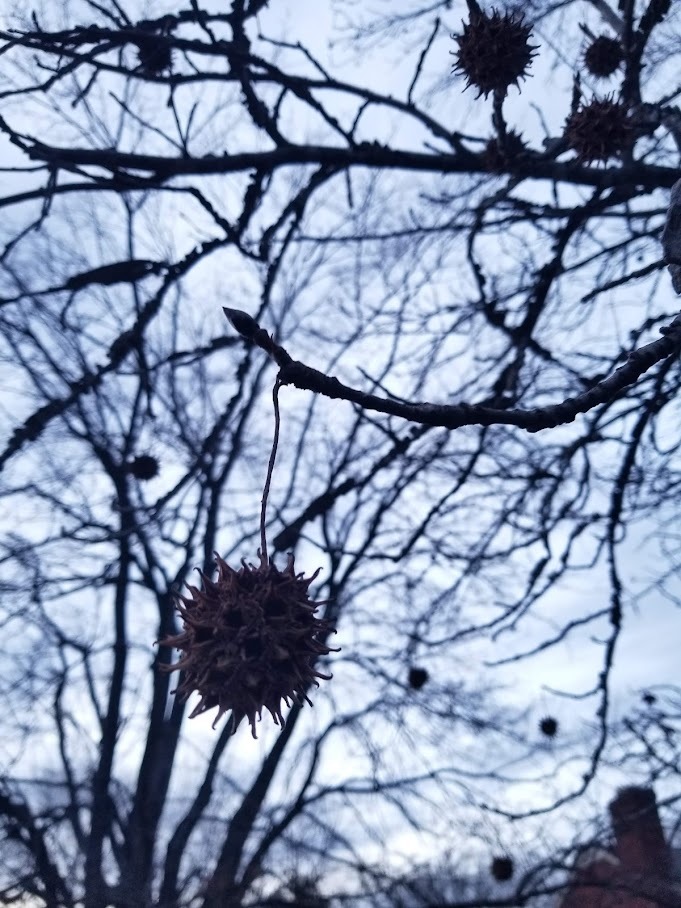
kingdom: Plantae
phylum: Tracheophyta
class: Magnoliopsida
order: Saxifragales
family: Altingiaceae
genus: Liquidambar
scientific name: Liquidambar styraciflua
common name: Sweet gum
